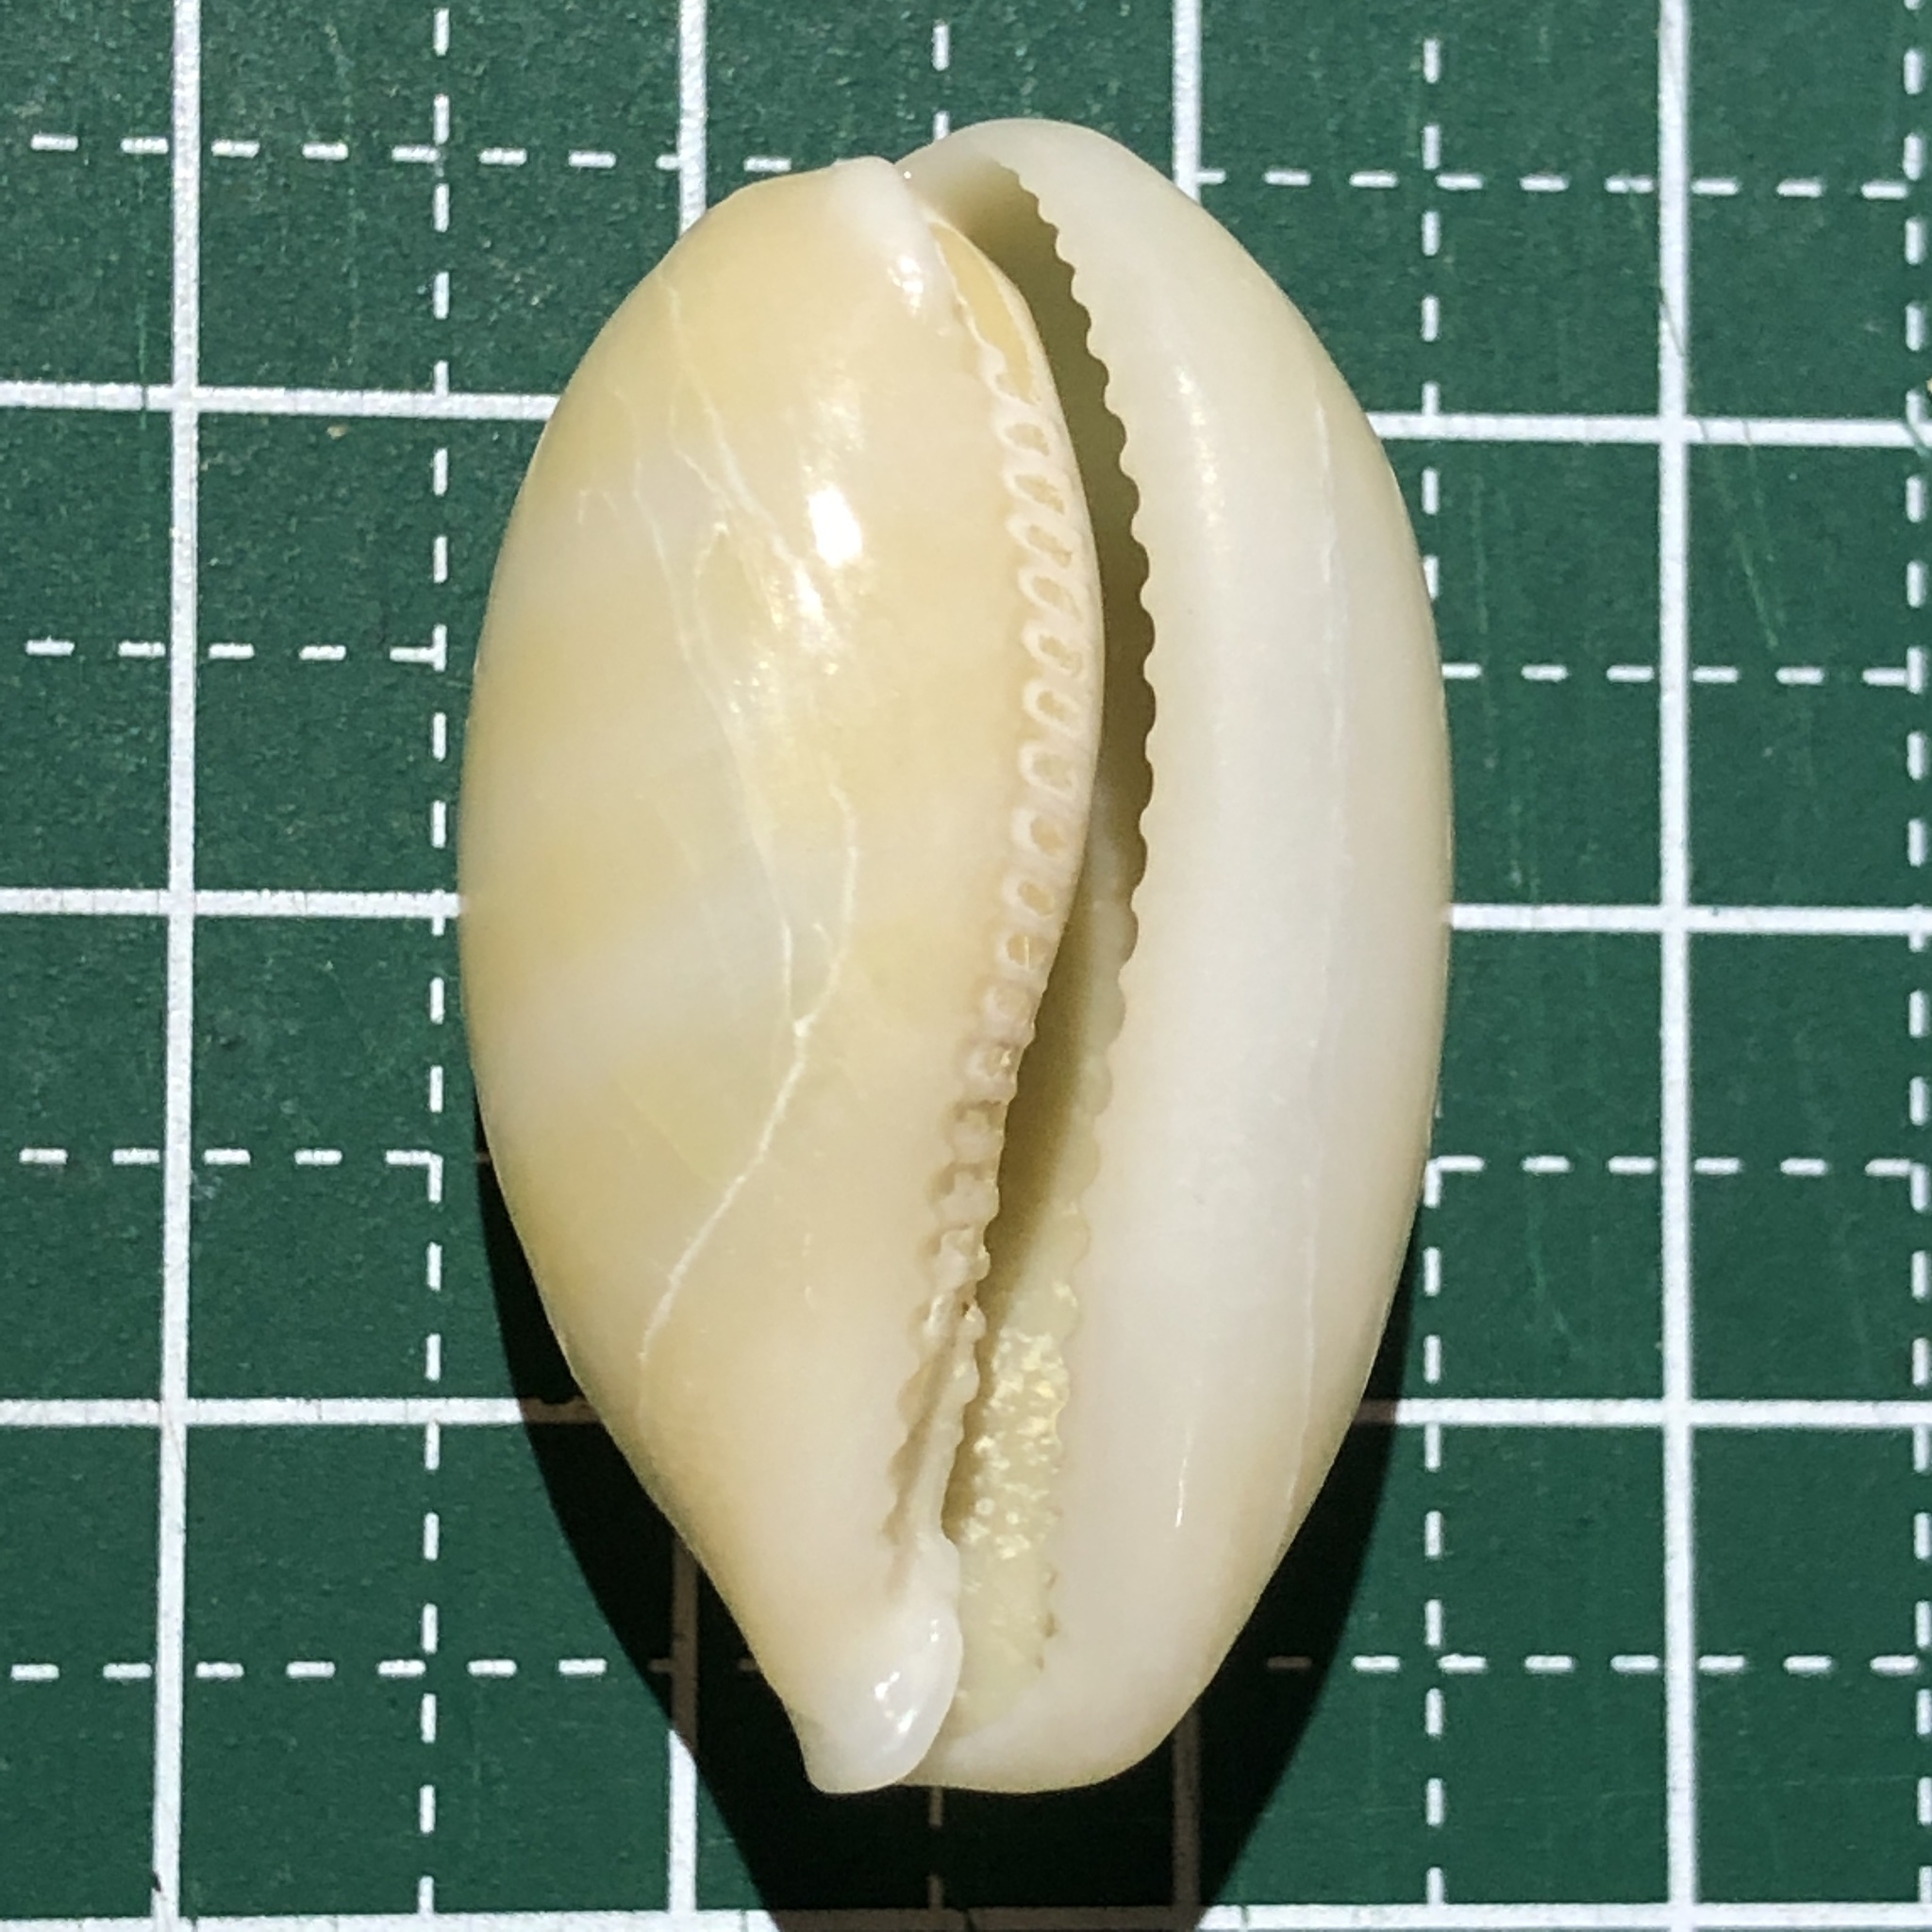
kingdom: Animalia
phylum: Mollusca
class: Gastropoda
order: Littorinimorpha
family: Cypraeidae
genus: Lyncina
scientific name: Lyncina carneola
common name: Purple-mouthed cowry
